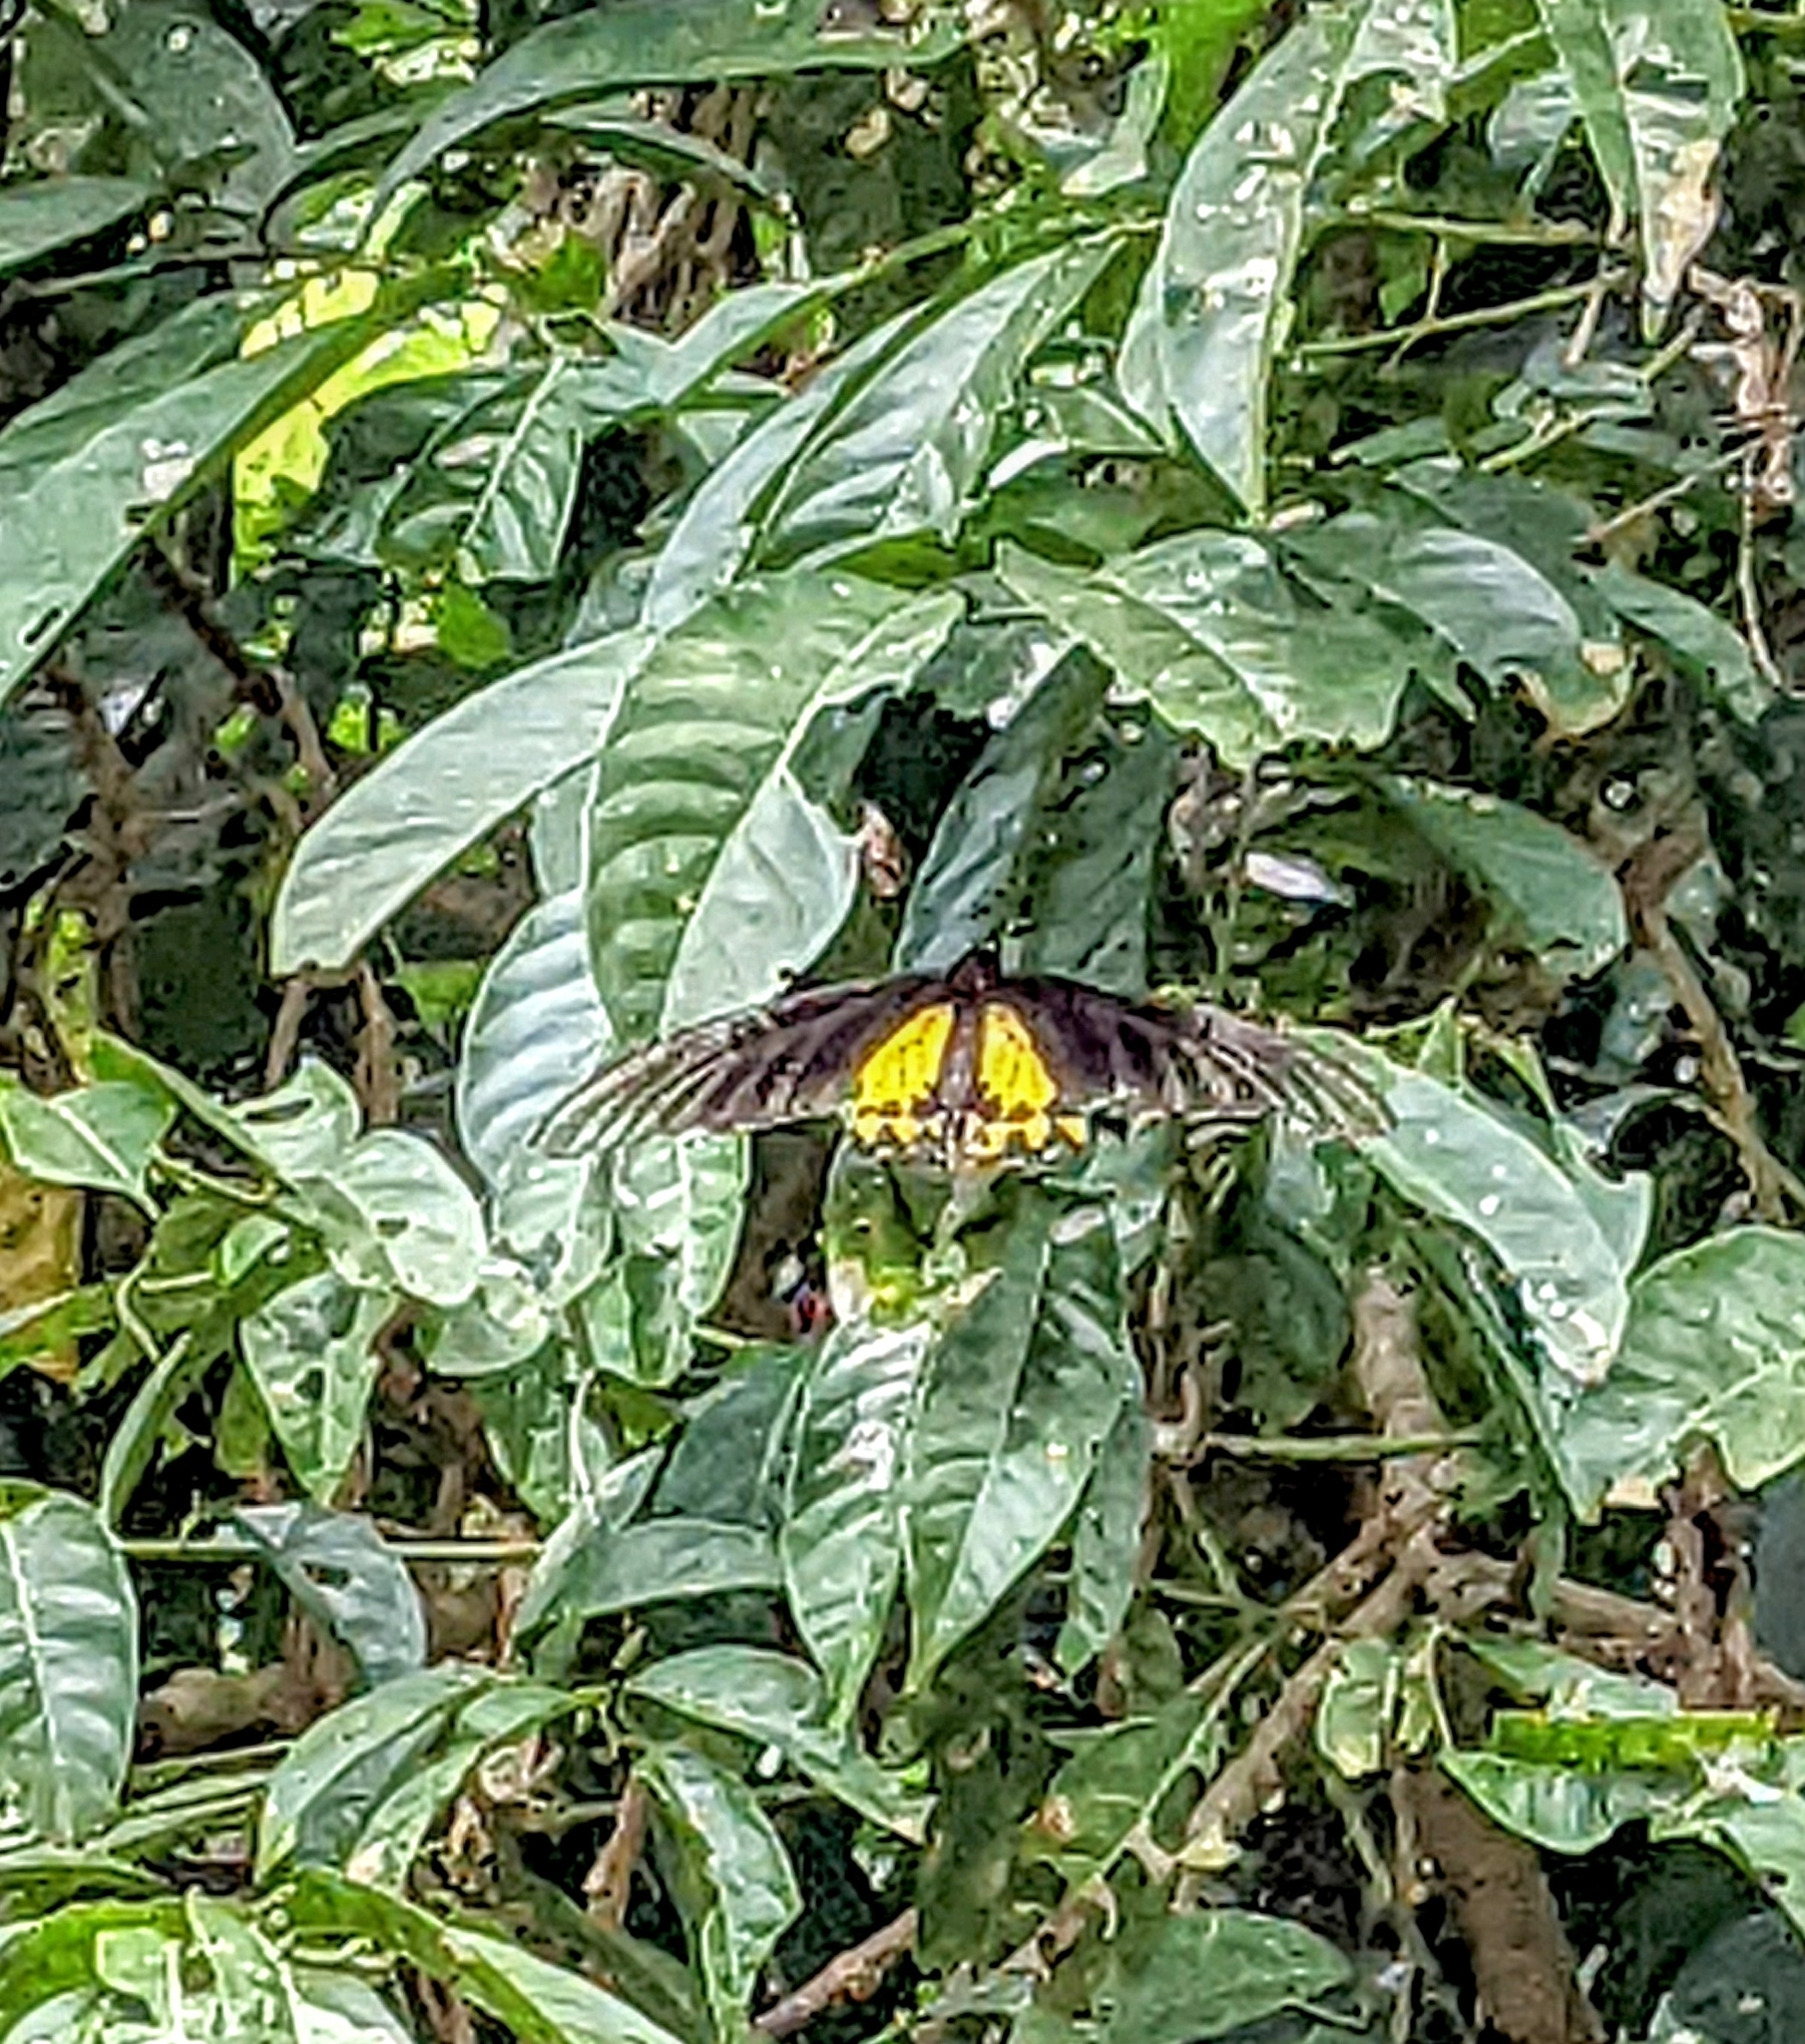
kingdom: Animalia
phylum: Arthropoda
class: Insecta
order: Lepidoptera
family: Papilionidae
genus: Troides
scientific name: Troides helena
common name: Common birdwing
